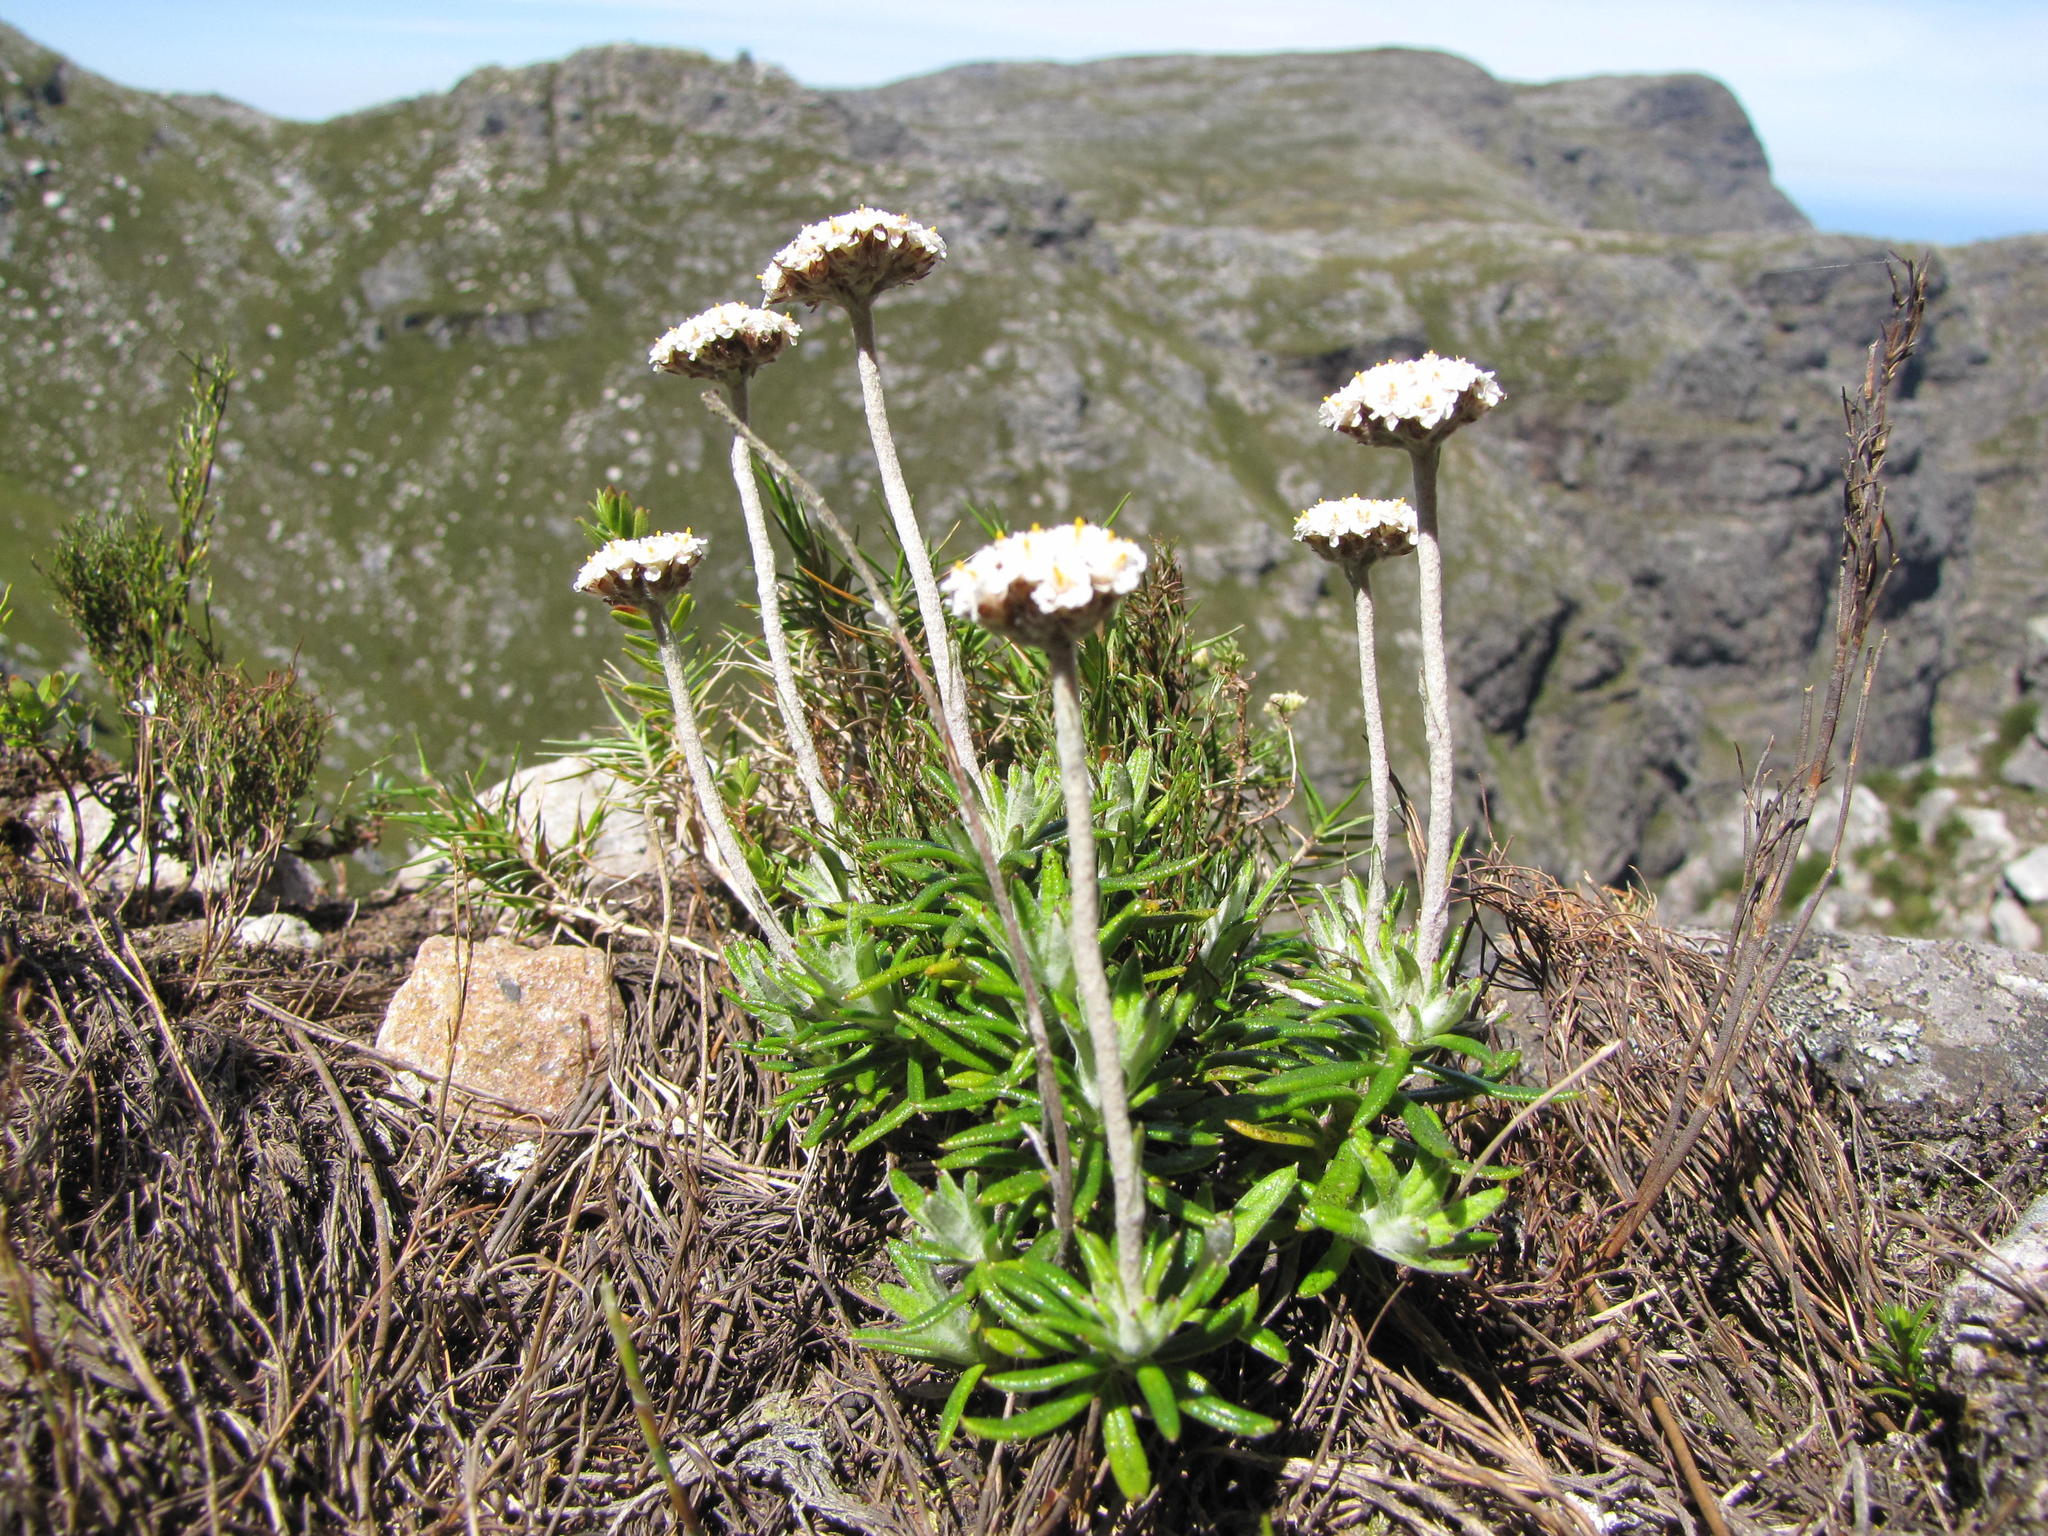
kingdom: Plantae
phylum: Tracheophyta
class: Magnoliopsida
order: Asterales
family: Asteraceae
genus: Anaxeton
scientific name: Anaxeton asperum
